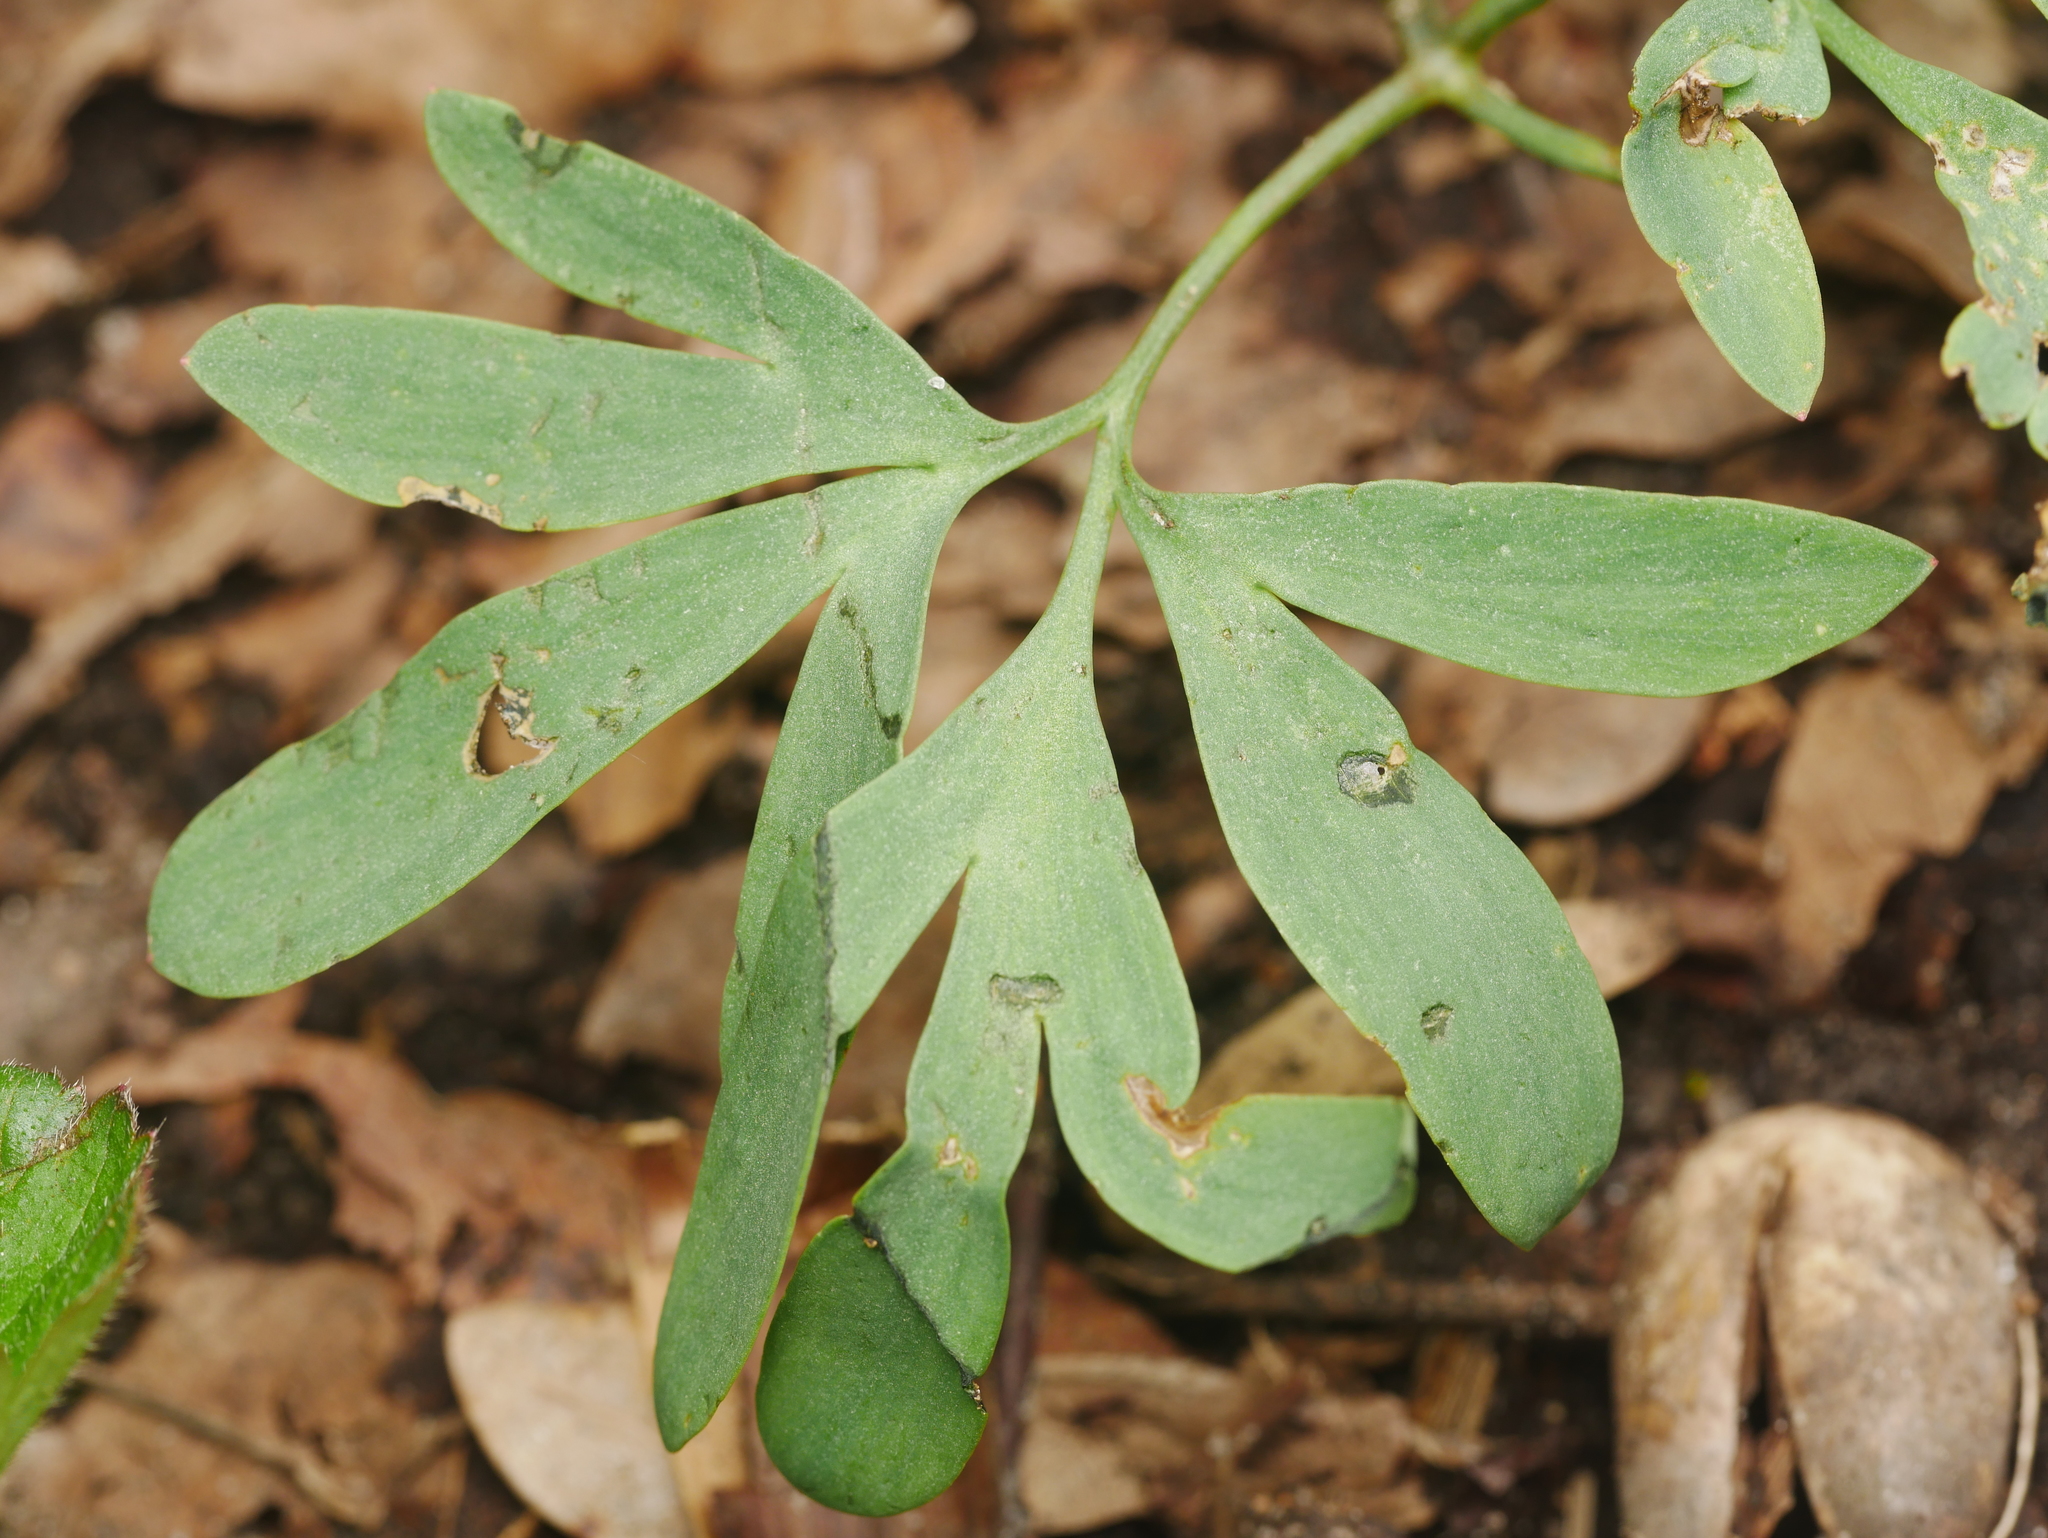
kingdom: Plantae
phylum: Tracheophyta
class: Magnoliopsida
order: Ranunculales
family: Papaveraceae
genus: Corydalis
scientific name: Corydalis solida
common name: Bird-in-a-bush
